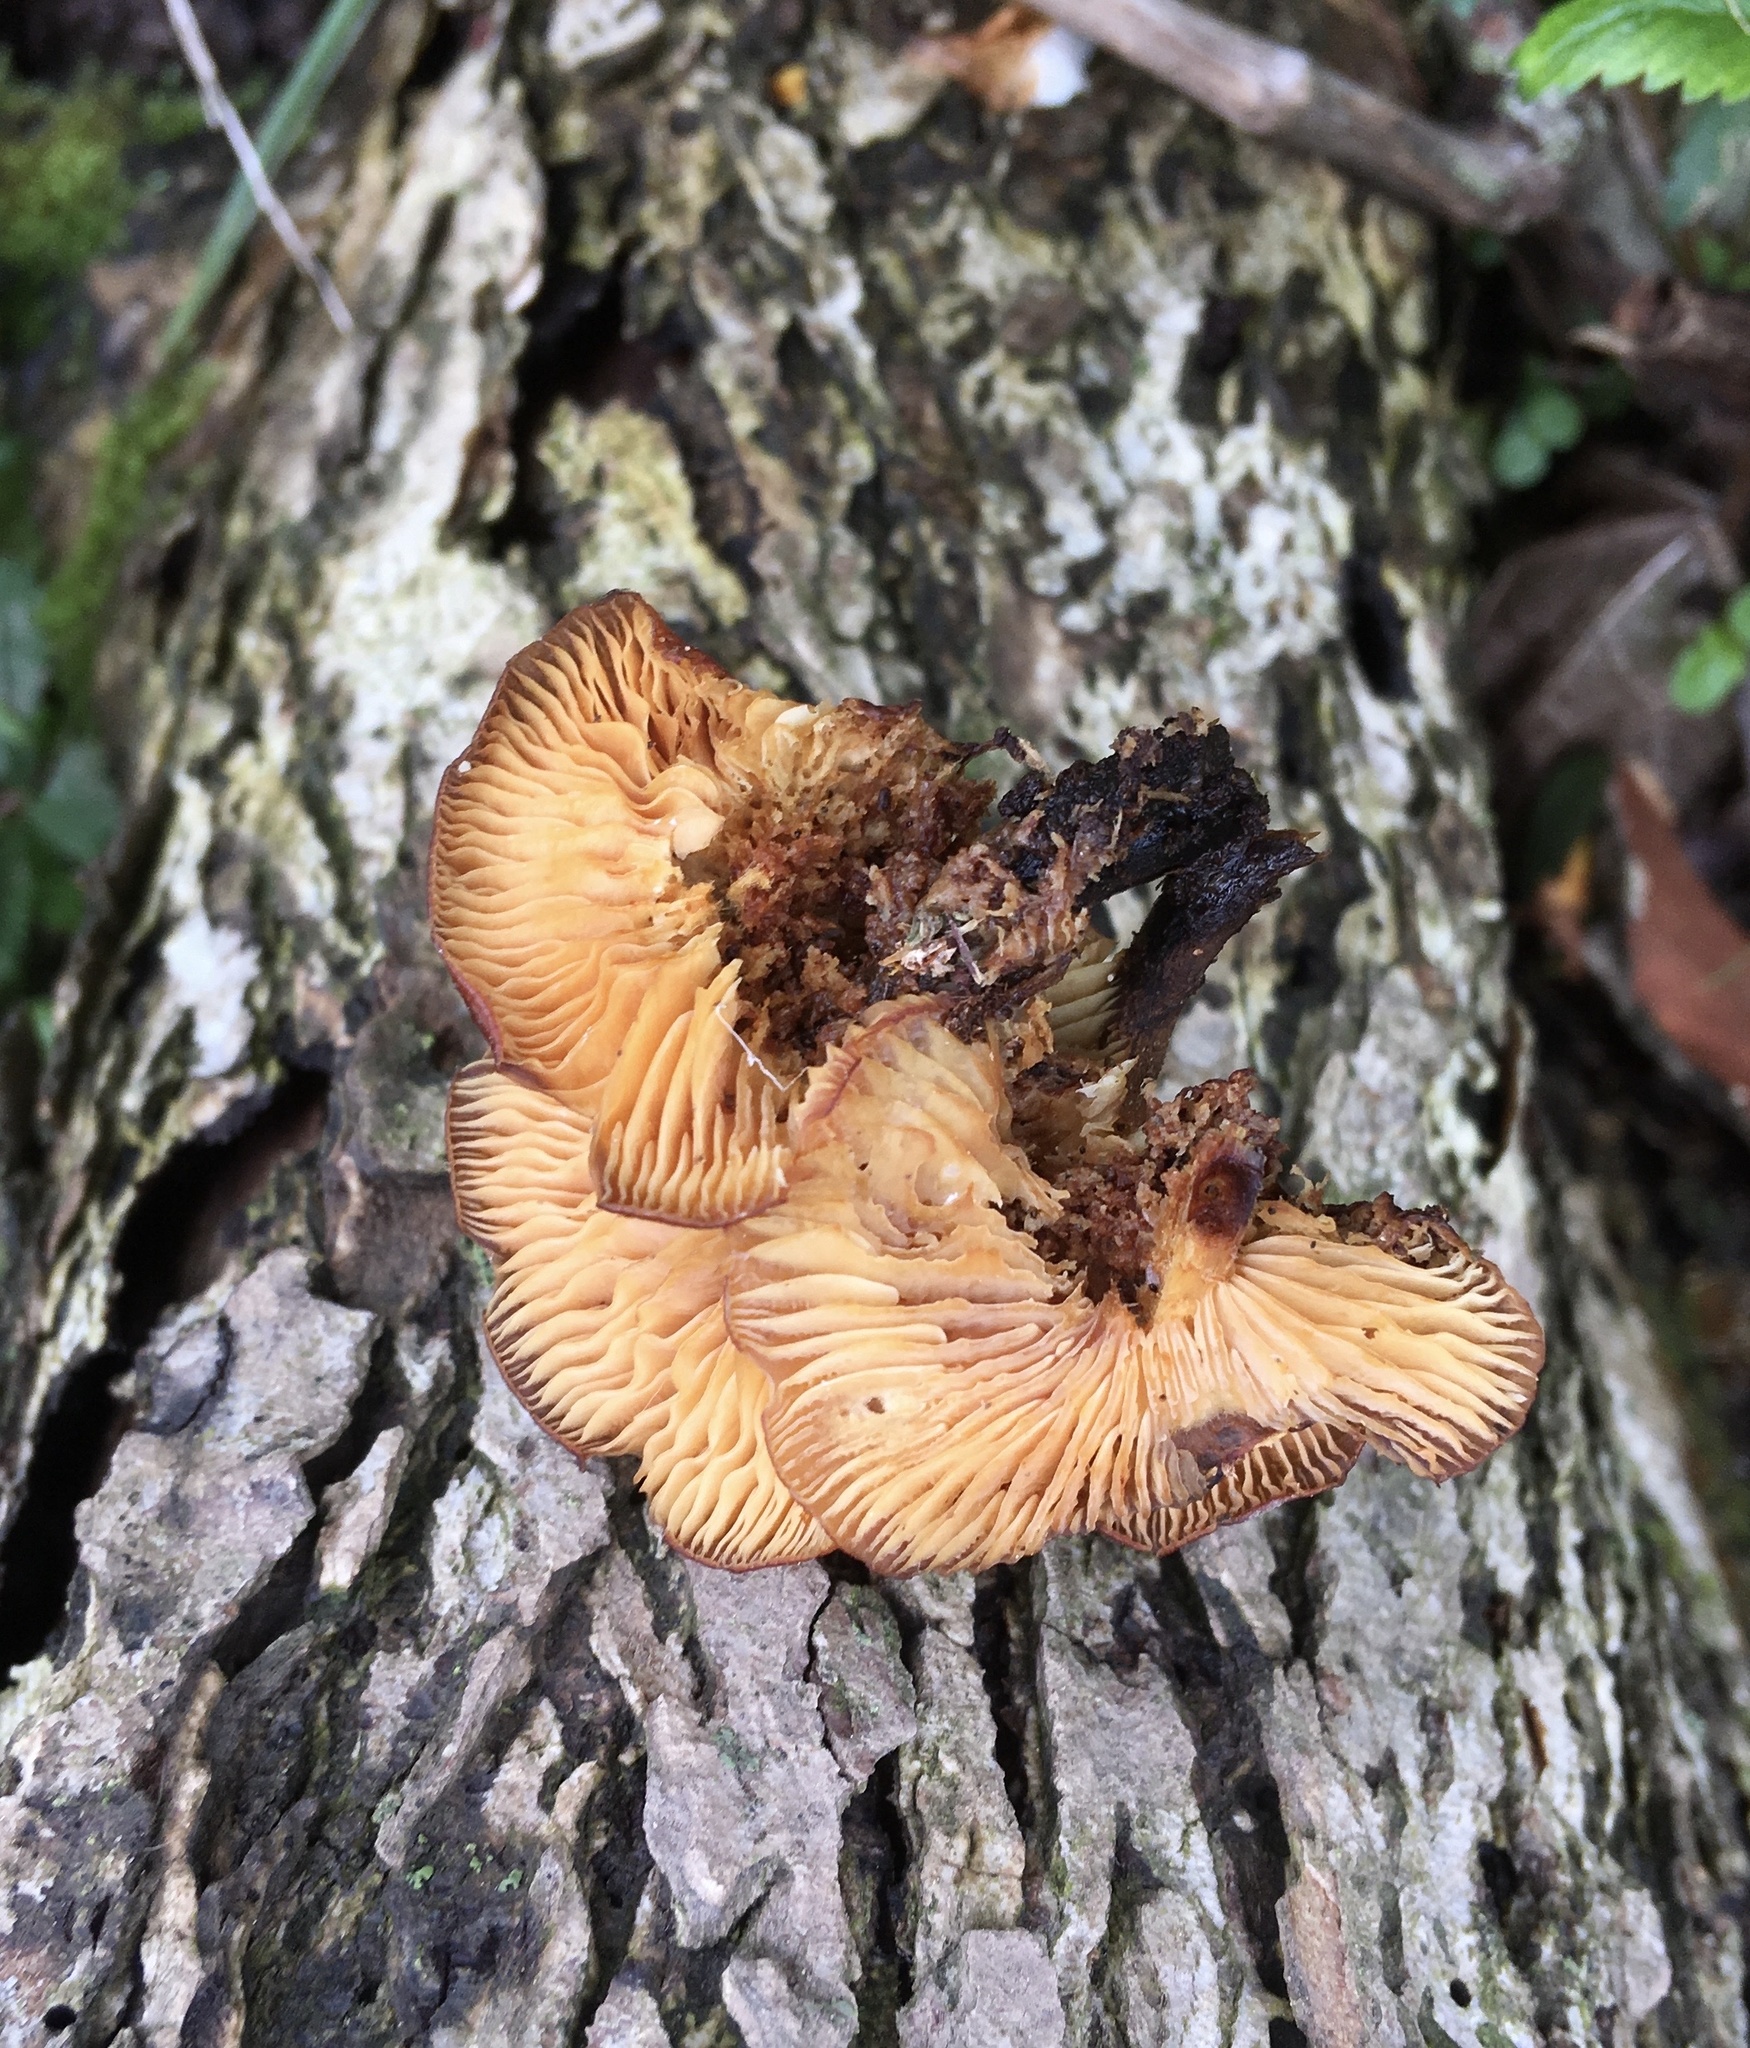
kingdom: Fungi
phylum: Basidiomycota
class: Agaricomycetes
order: Agaricales
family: Physalacriaceae
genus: Flammulina
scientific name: Flammulina velutipes
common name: Velvet shank
